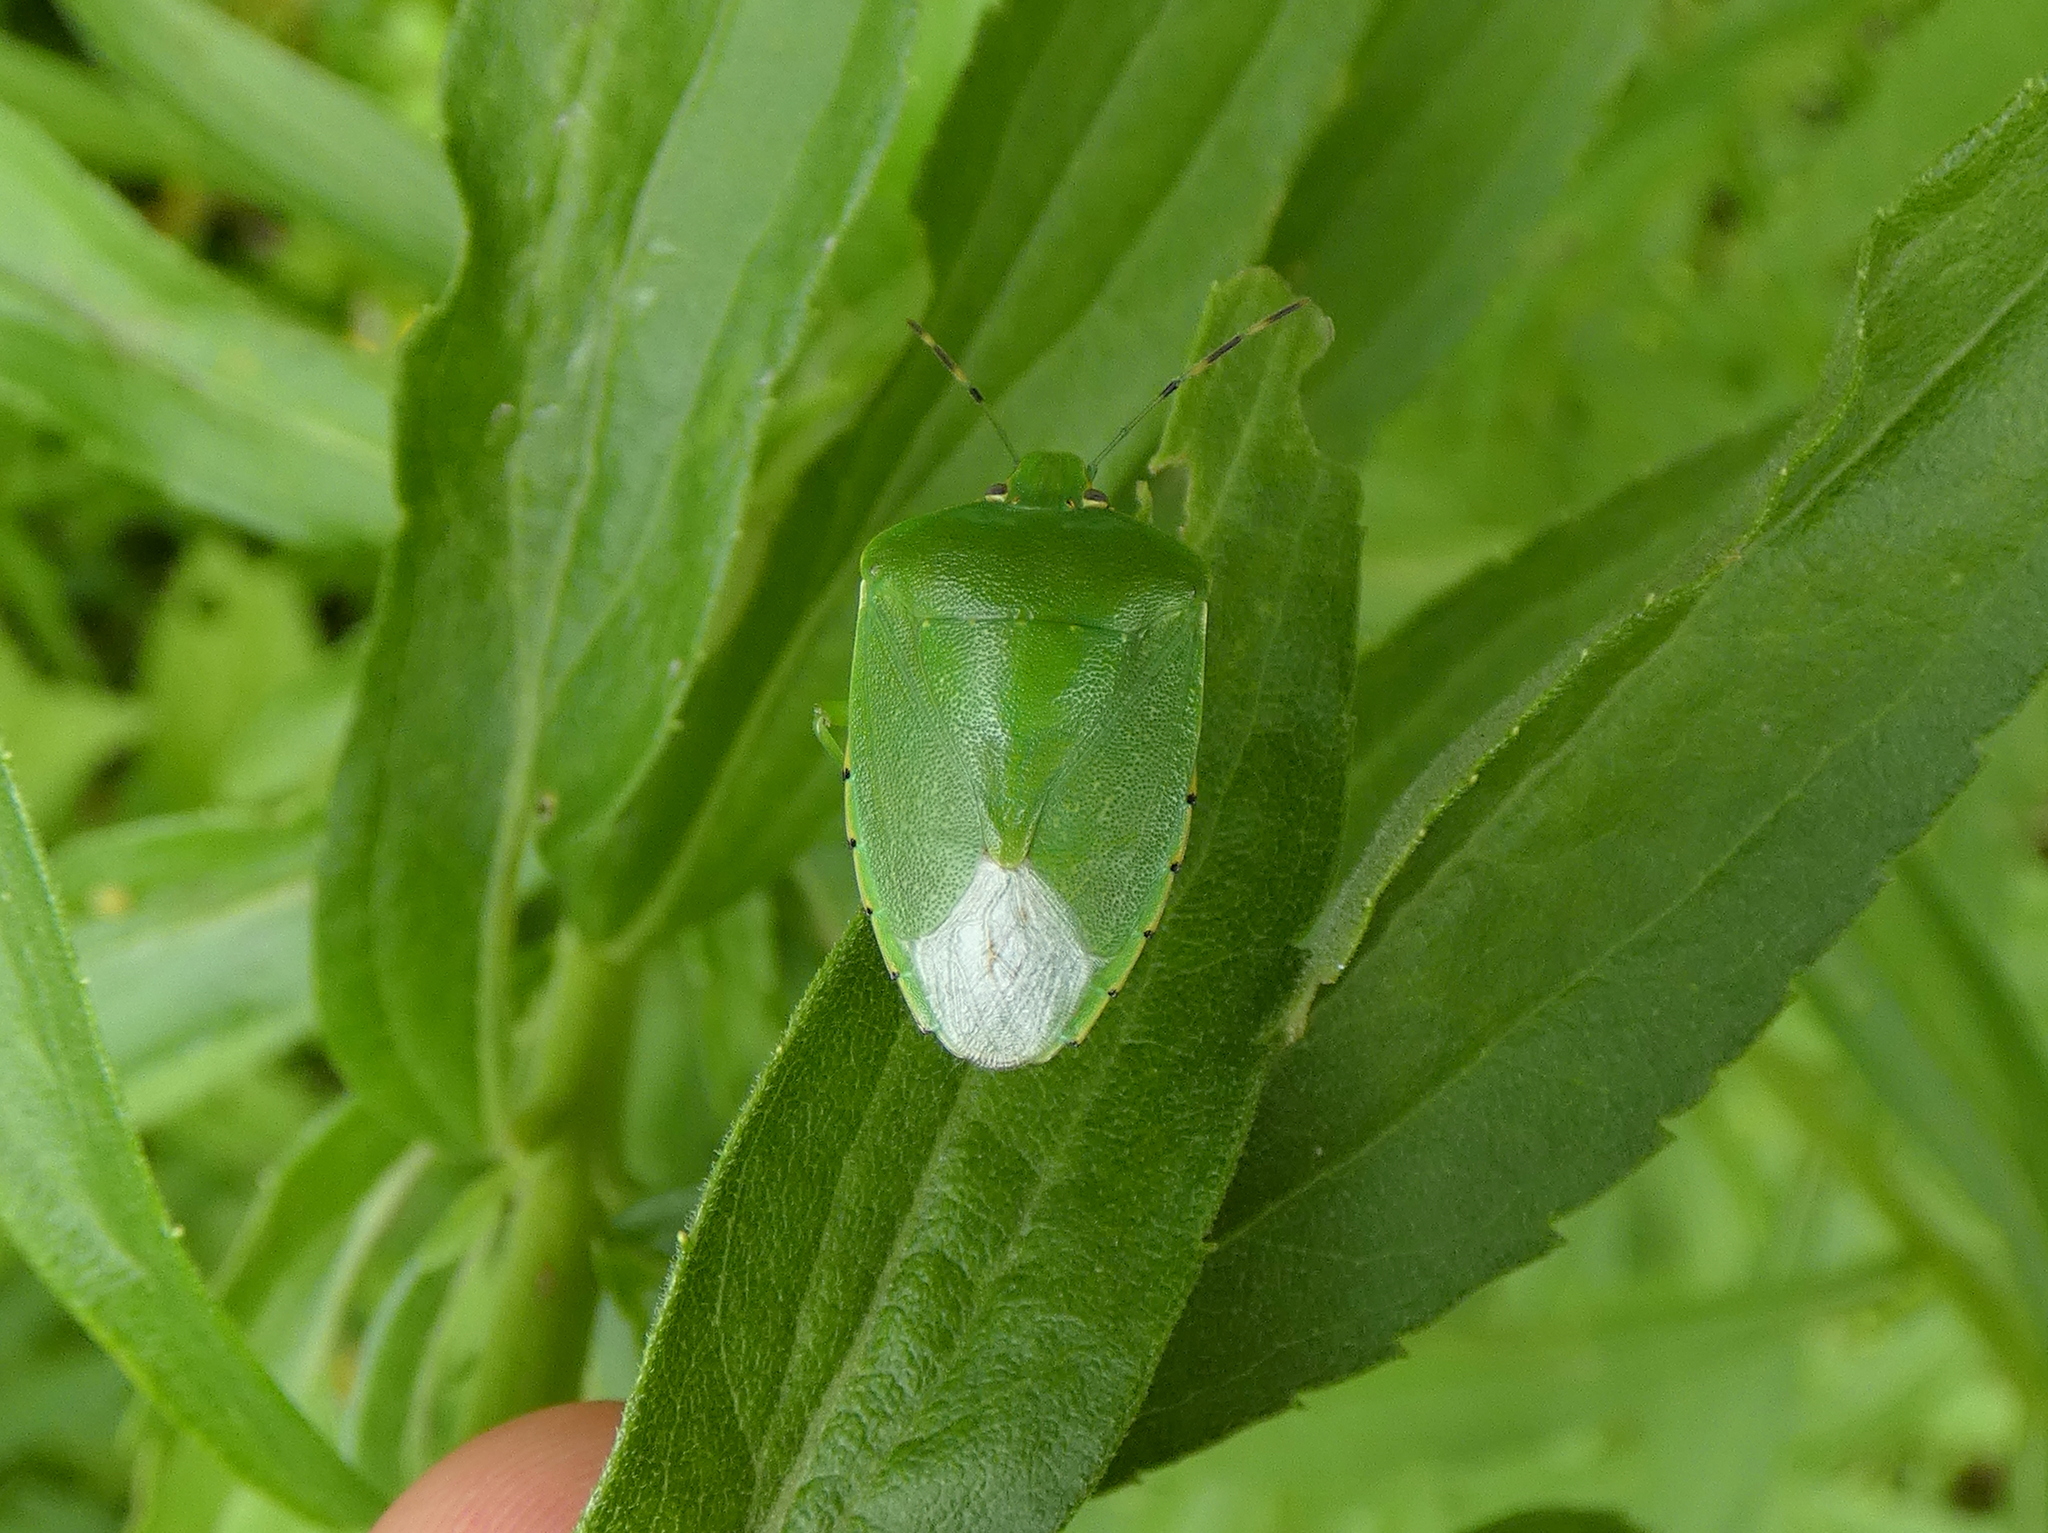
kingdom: Animalia
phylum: Arthropoda
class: Insecta
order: Hemiptera
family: Pentatomidae
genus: Chinavia
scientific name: Chinavia hilaris
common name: Green stink bug
